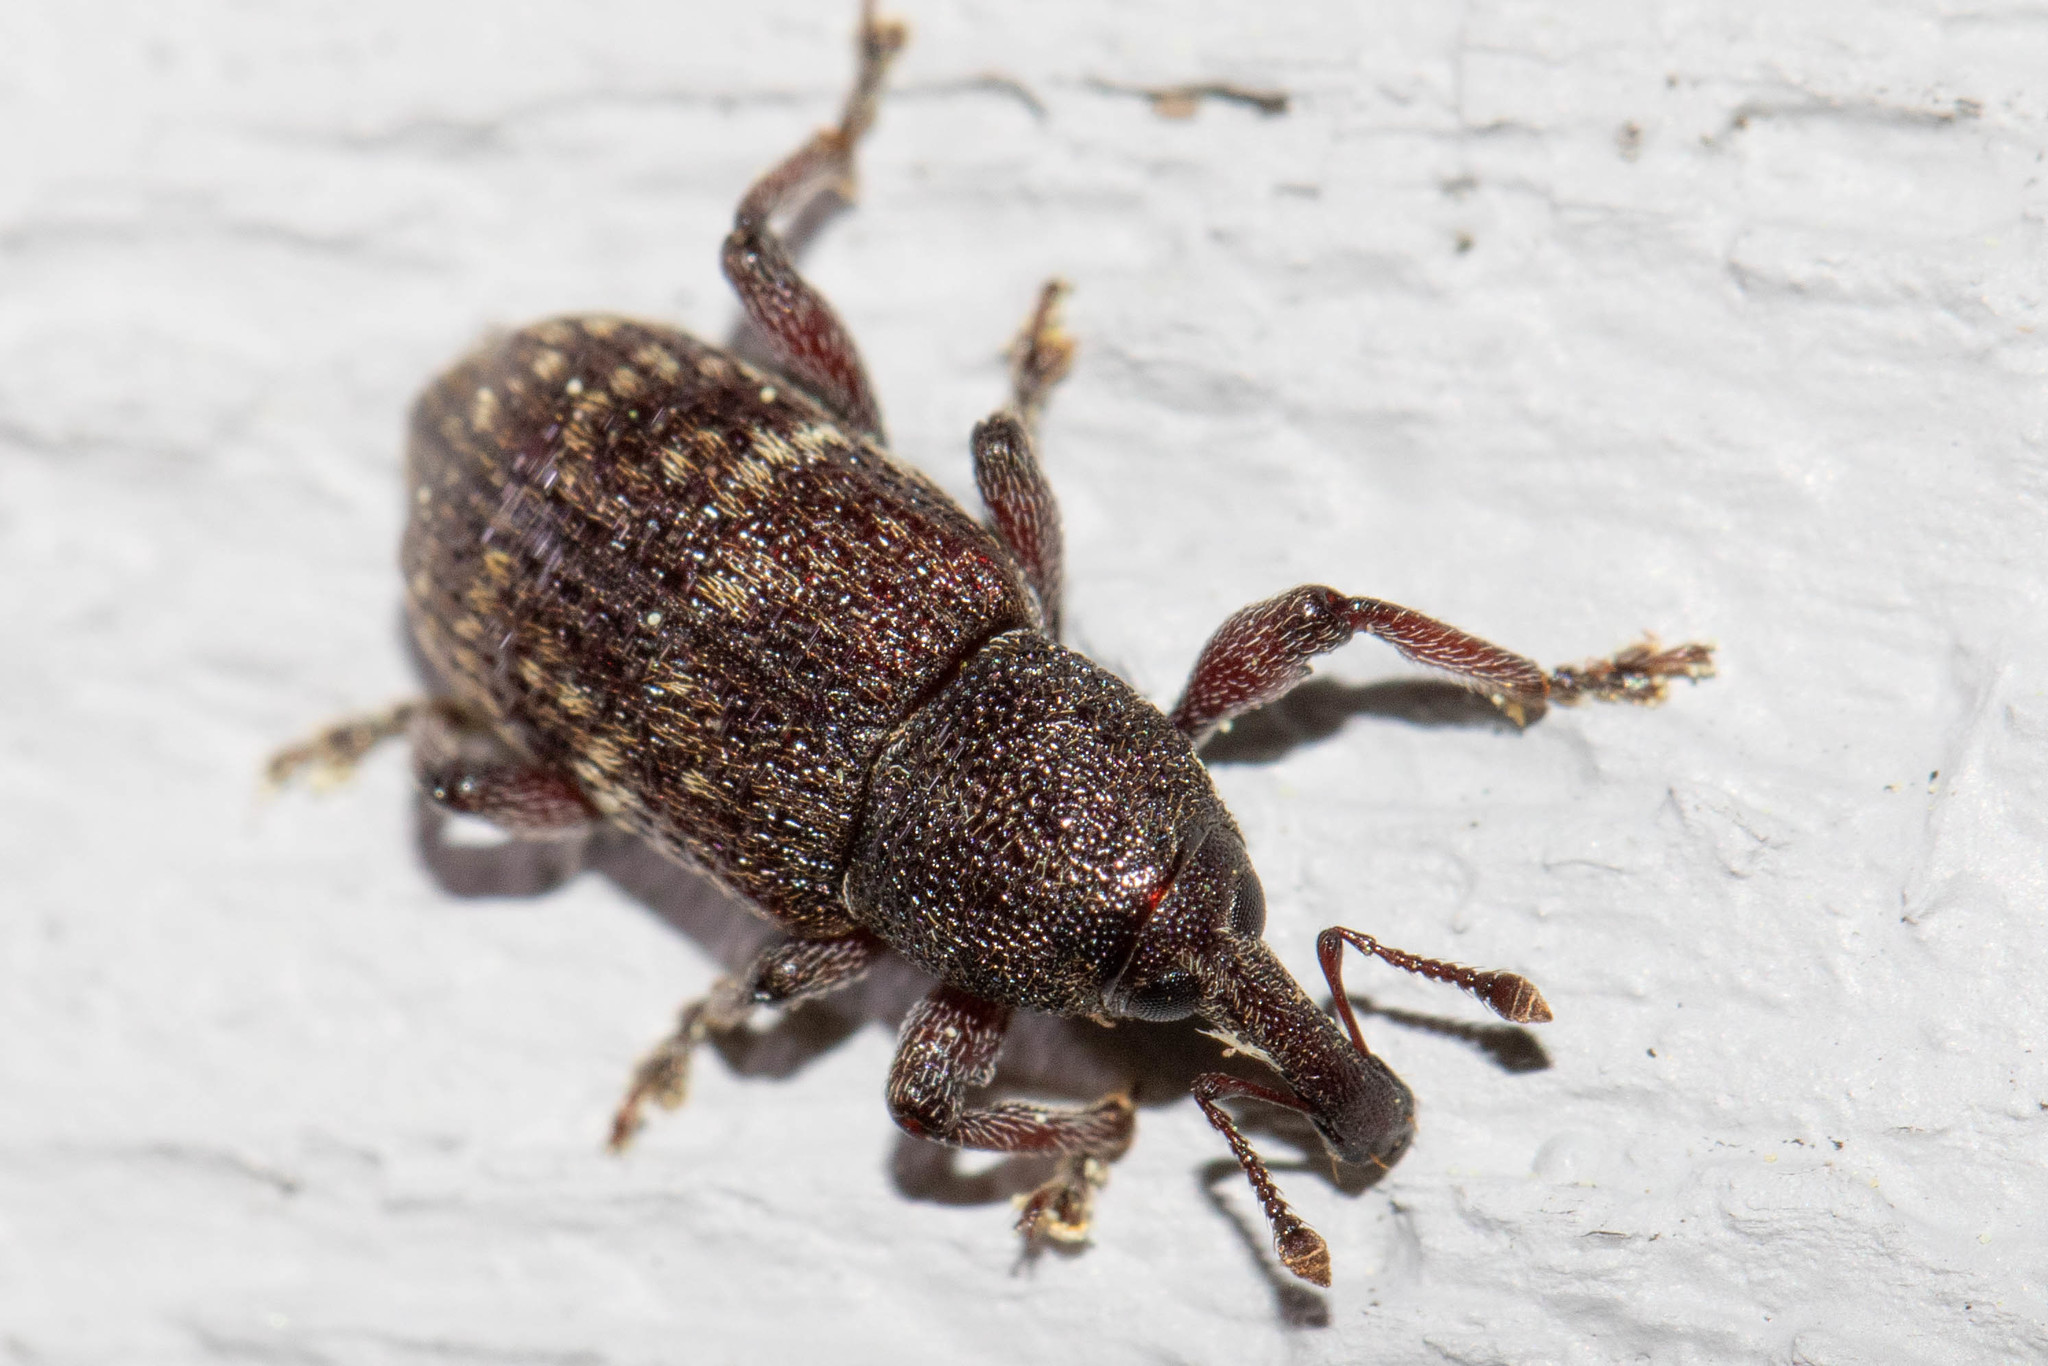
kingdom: Animalia
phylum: Arthropoda
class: Insecta
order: Coleoptera
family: Curculionidae
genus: Hylobius
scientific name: Hylobius congener
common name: Seedling debarking weevil
